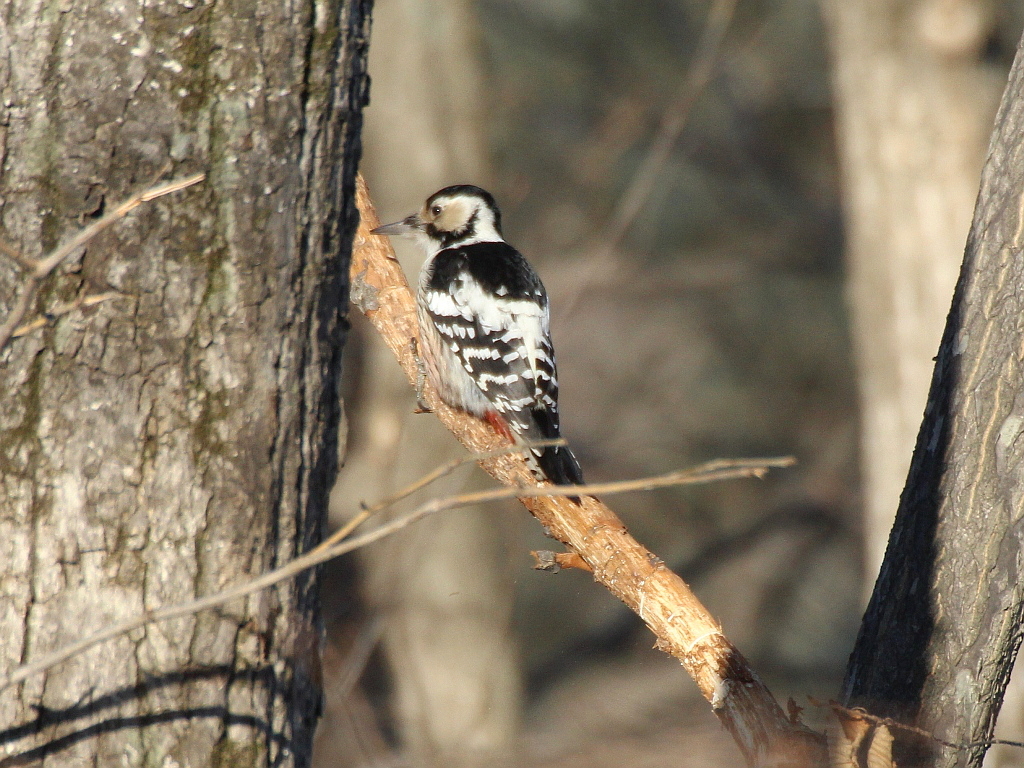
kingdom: Animalia
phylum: Chordata
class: Aves
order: Piciformes
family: Picidae
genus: Dendrocopos
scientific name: Dendrocopos leucotos
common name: White-backed woodpecker
